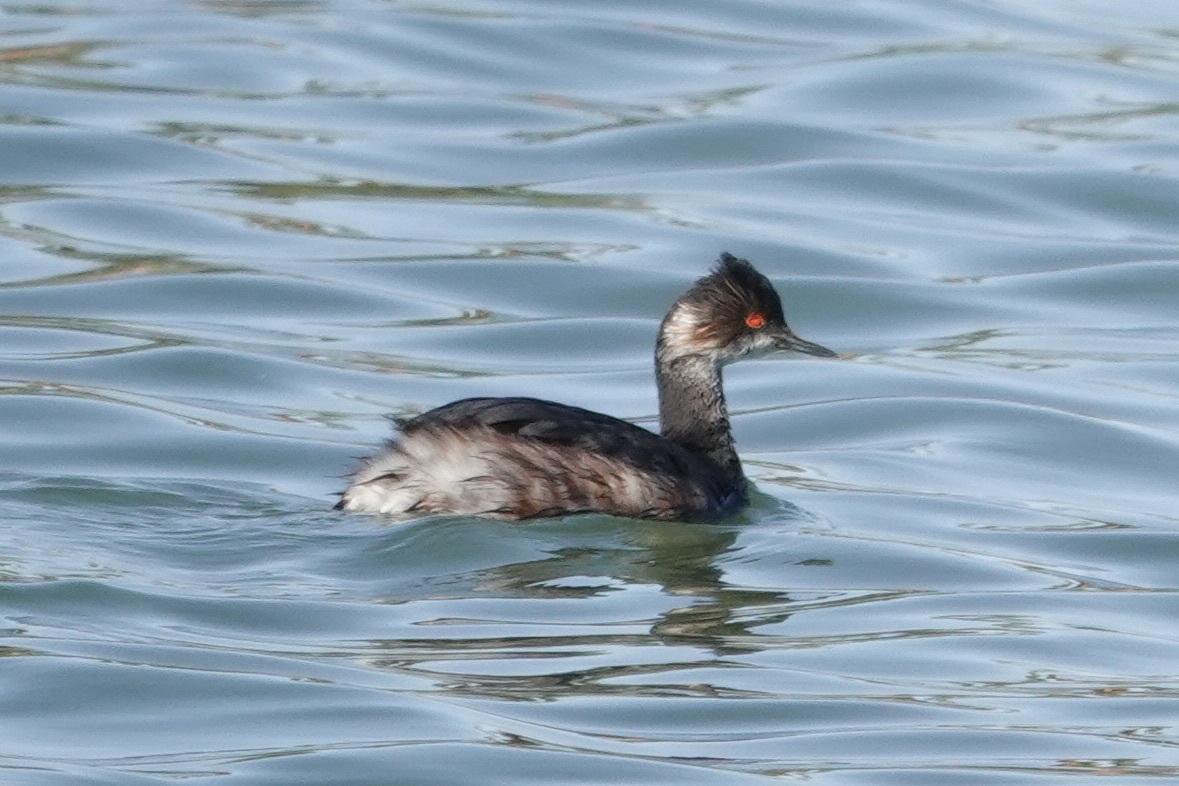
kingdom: Animalia
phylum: Chordata
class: Aves
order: Podicipediformes
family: Podicipedidae
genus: Podiceps
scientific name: Podiceps nigricollis
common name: Black-necked grebe
